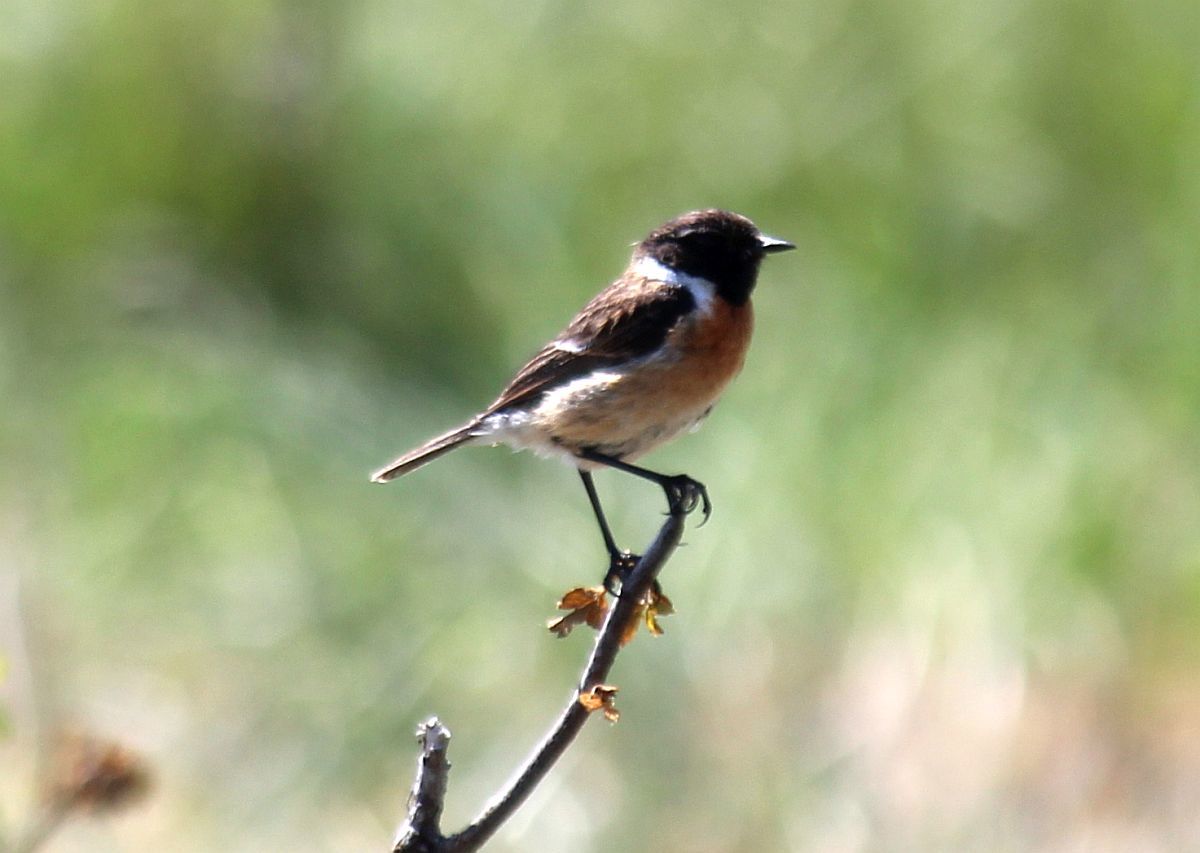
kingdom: Animalia
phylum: Chordata
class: Aves
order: Passeriformes
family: Muscicapidae
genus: Saxicola
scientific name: Saxicola rubicola
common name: European stonechat
